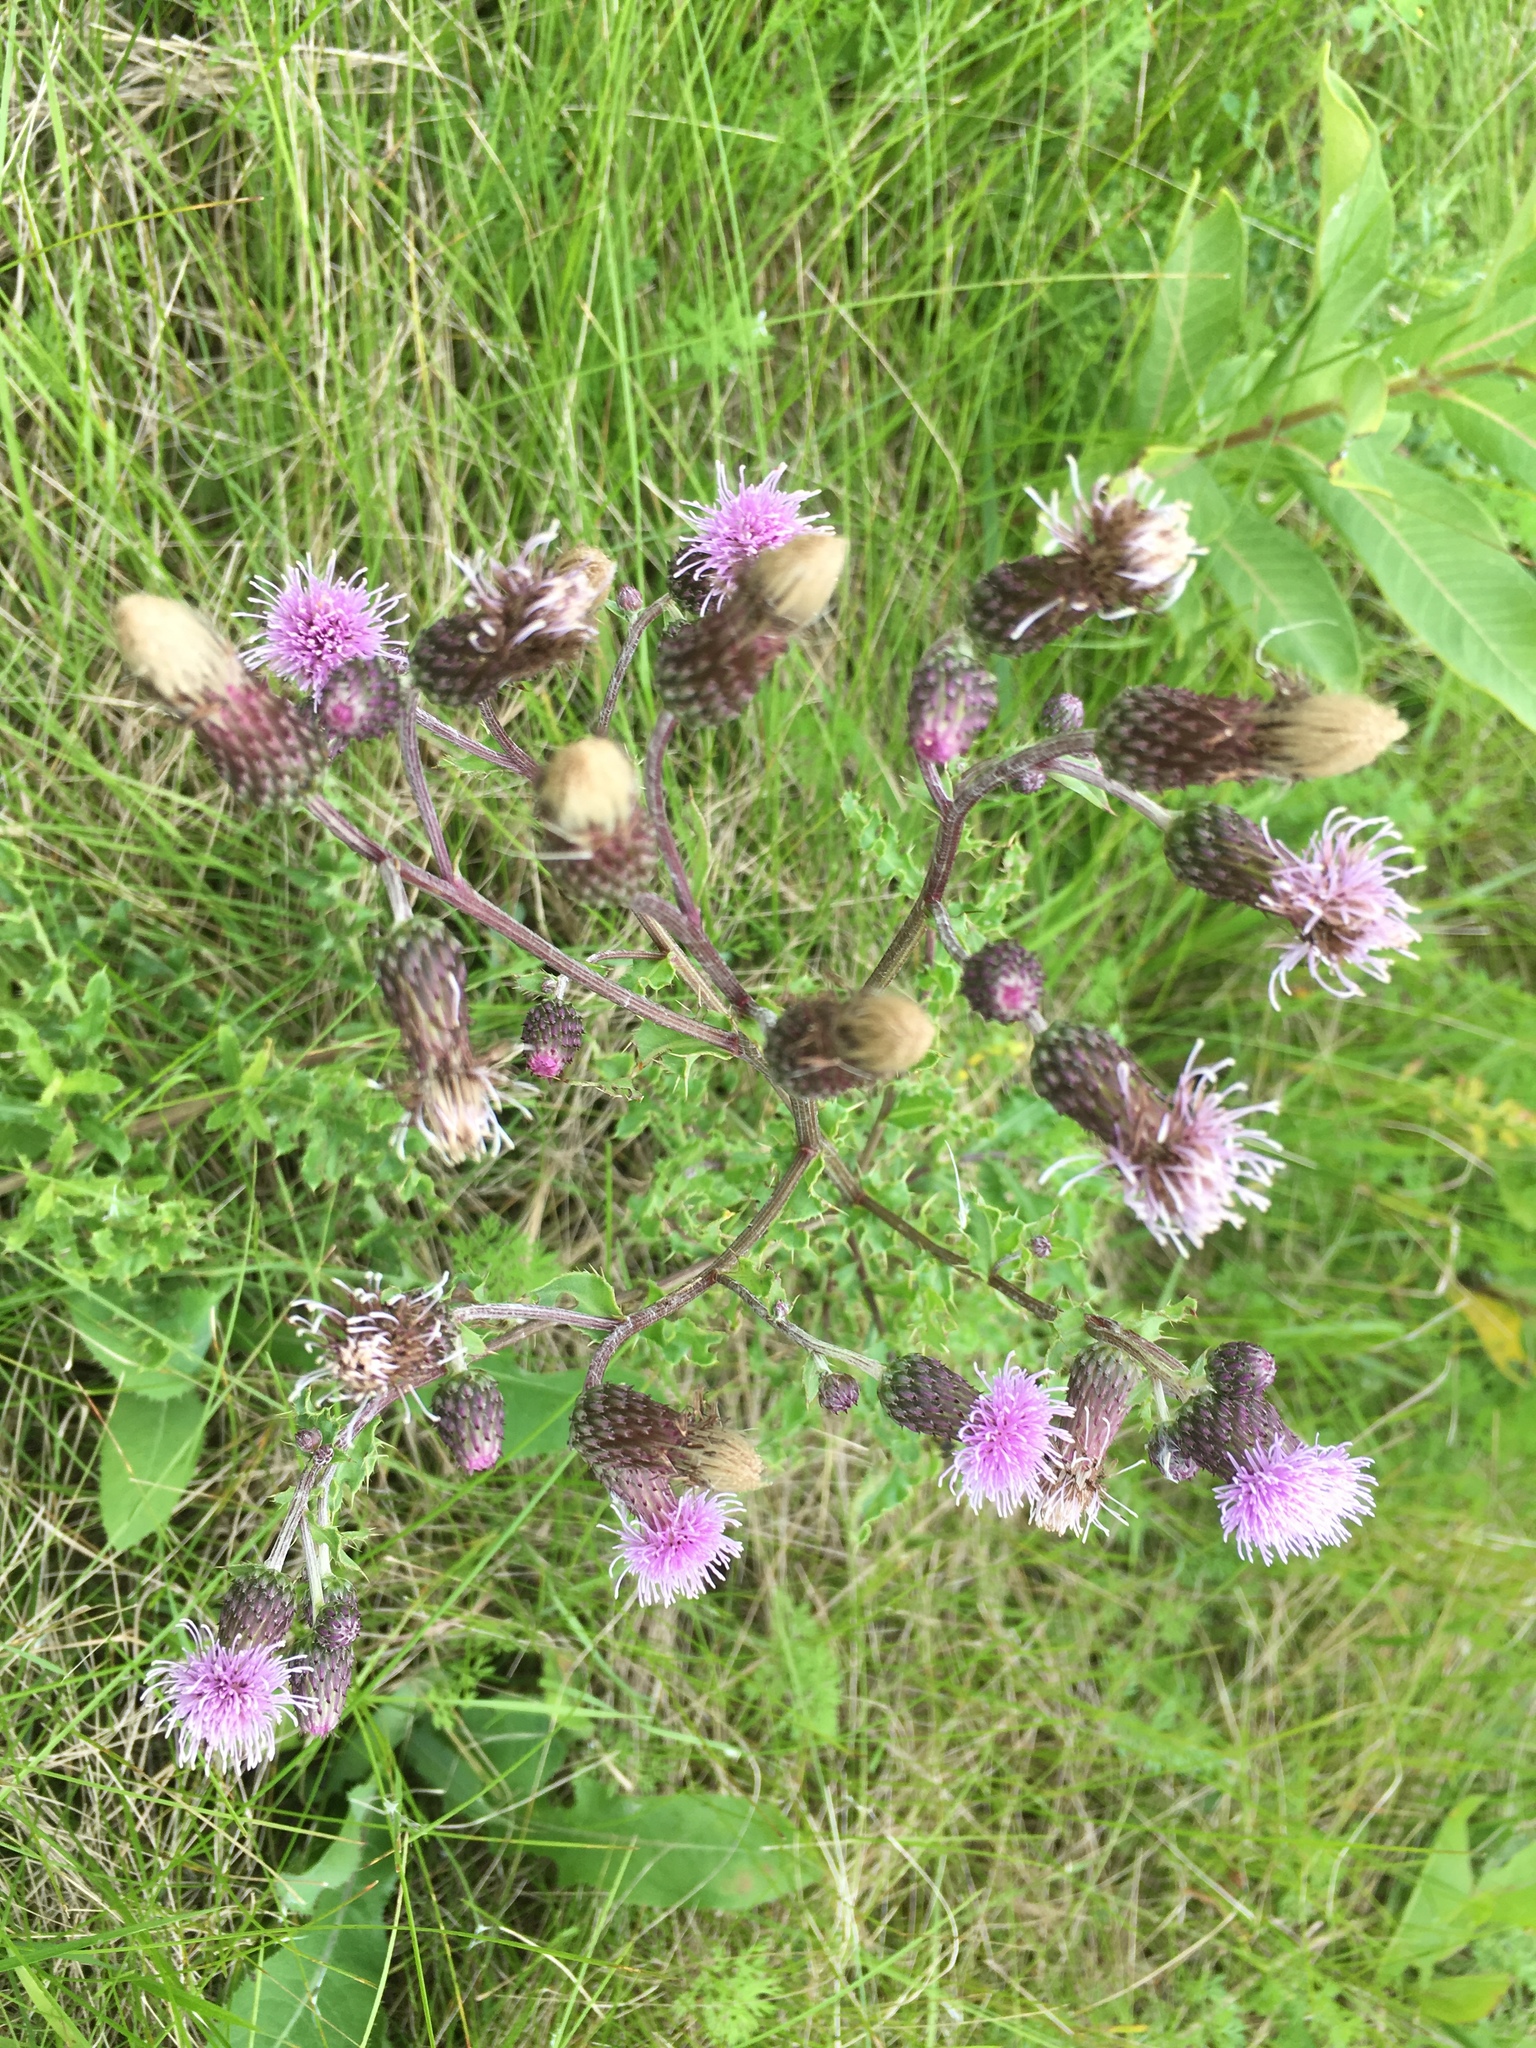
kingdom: Plantae
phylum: Tracheophyta
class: Magnoliopsida
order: Asterales
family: Asteraceae
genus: Cirsium
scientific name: Cirsium arvense
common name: Creeping thistle
